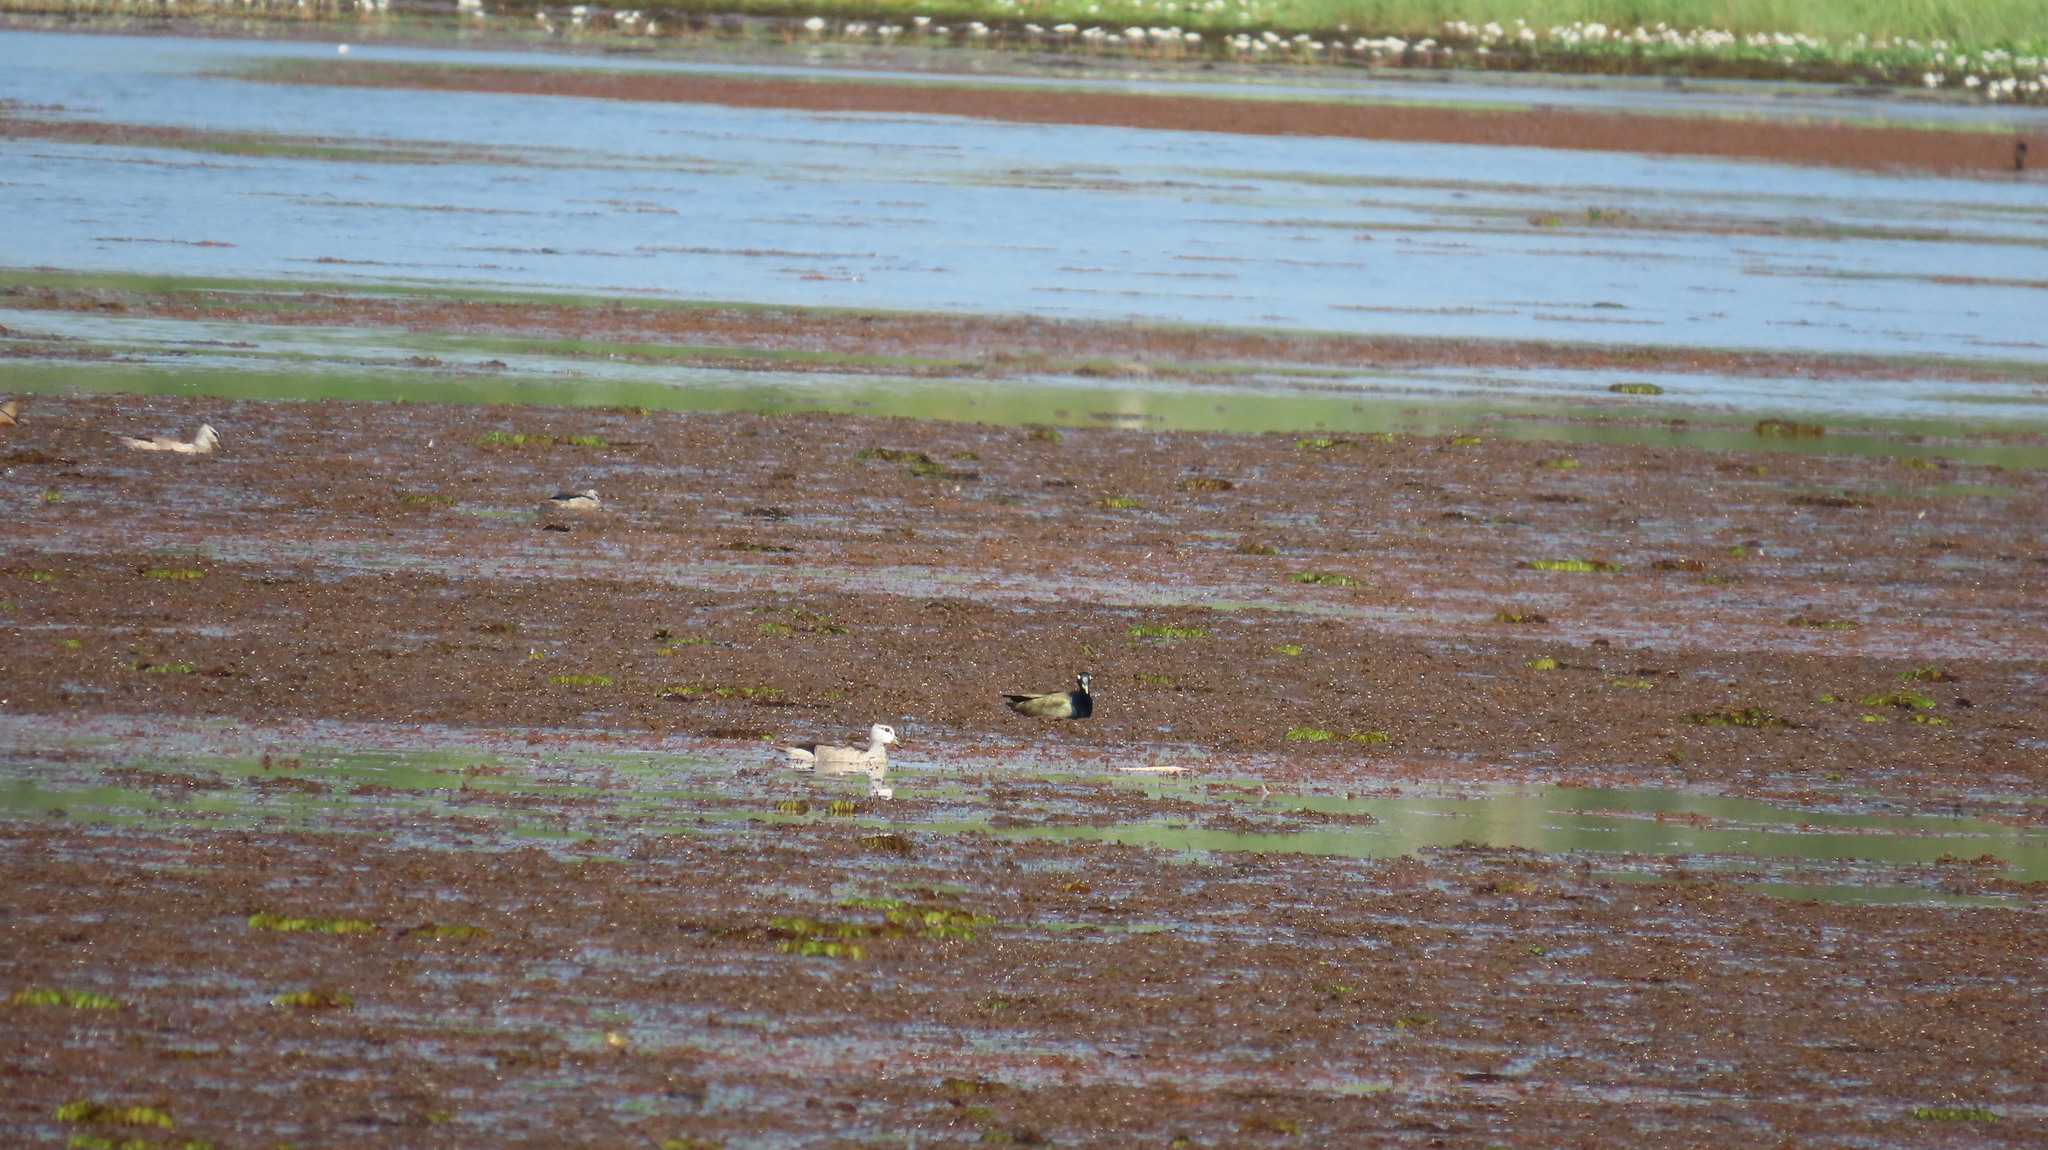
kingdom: Animalia
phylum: Chordata
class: Aves
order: Charadriiformes
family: Jacanidae
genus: Metopidius
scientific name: Metopidius indicus
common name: Bronze-winged jacana
